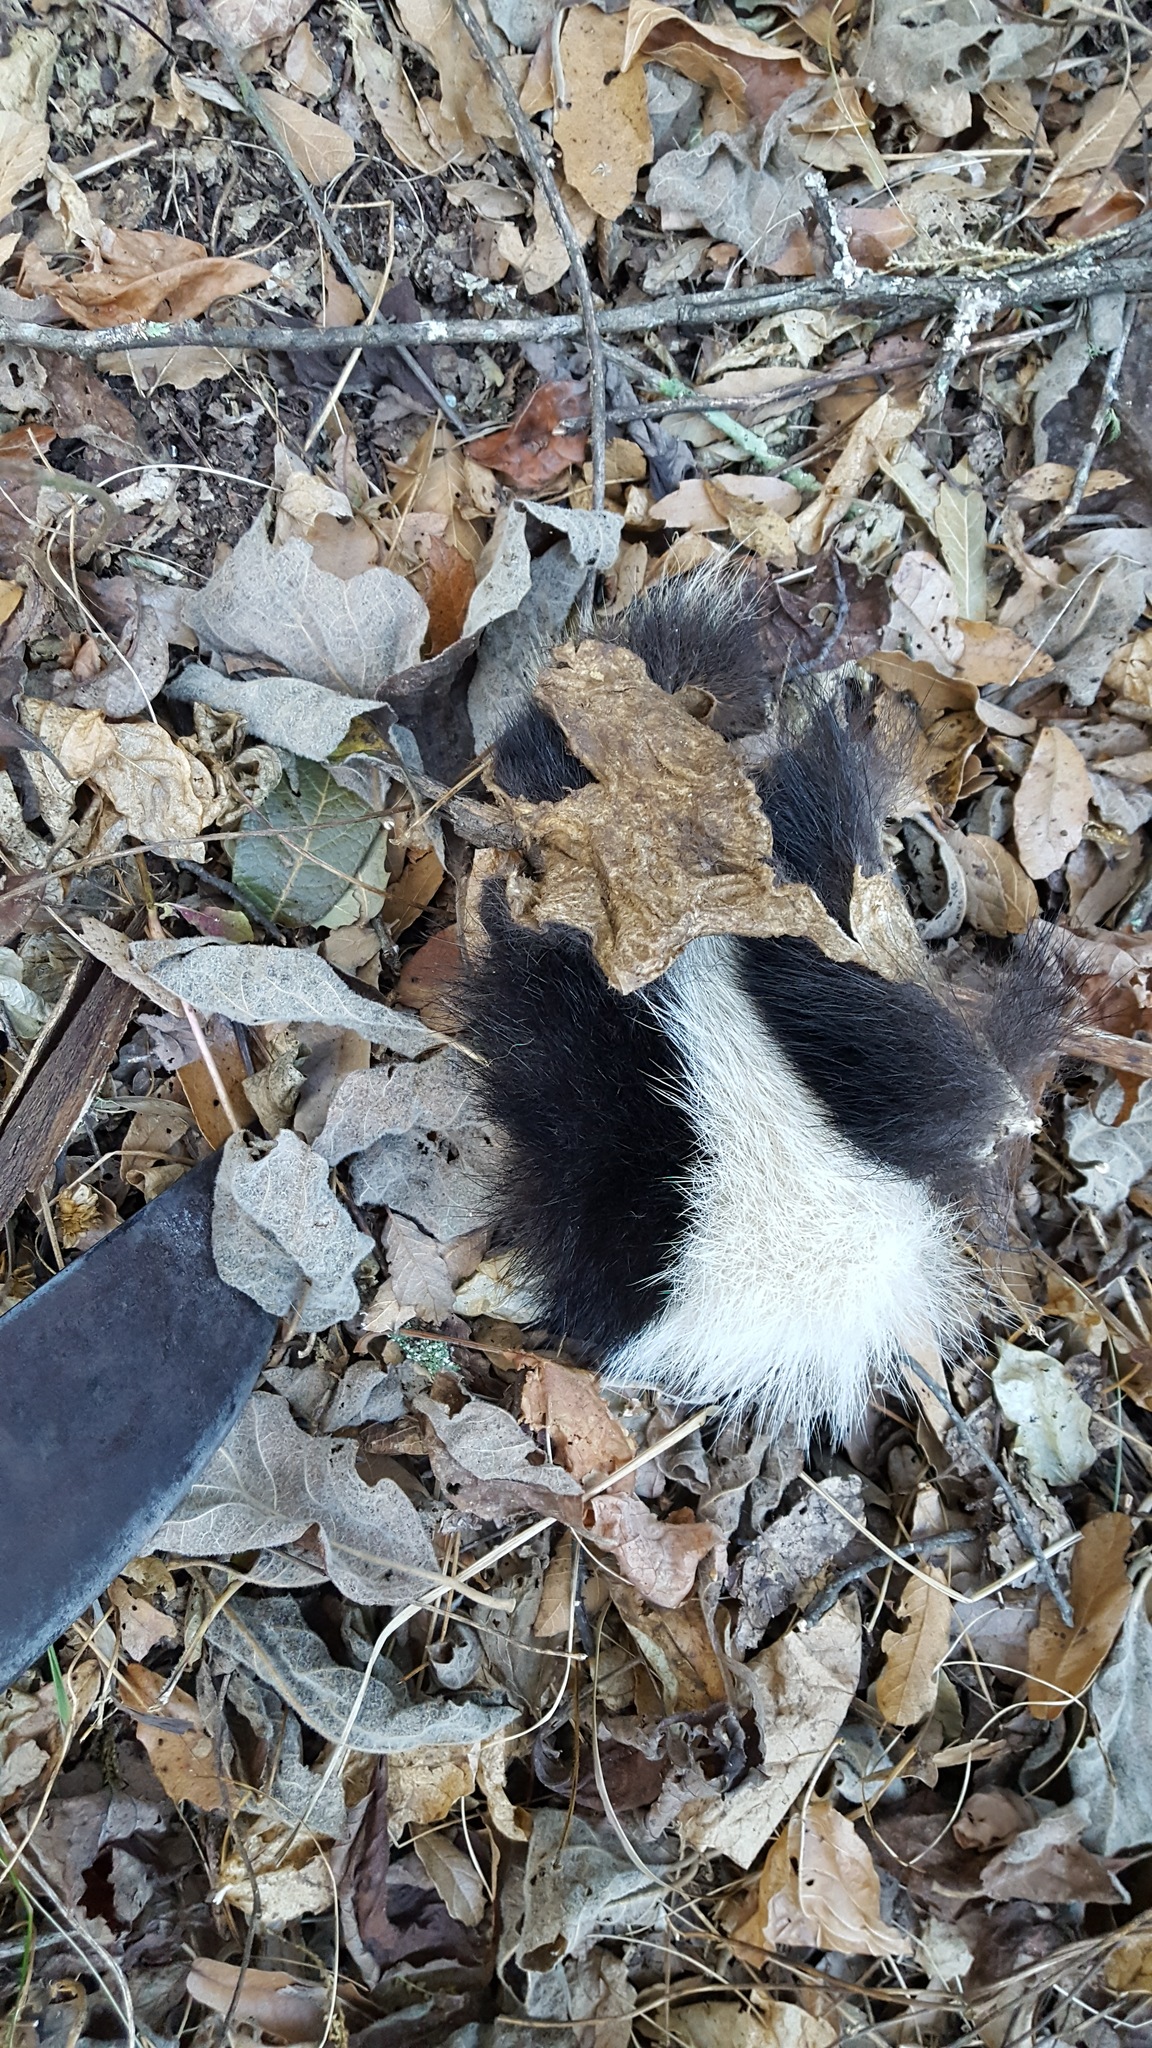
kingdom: Animalia
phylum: Chordata
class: Mammalia
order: Carnivora
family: Mephitidae
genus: Conepatus
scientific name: Conepatus leuconotus
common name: Eastern hog-nosed skunk
